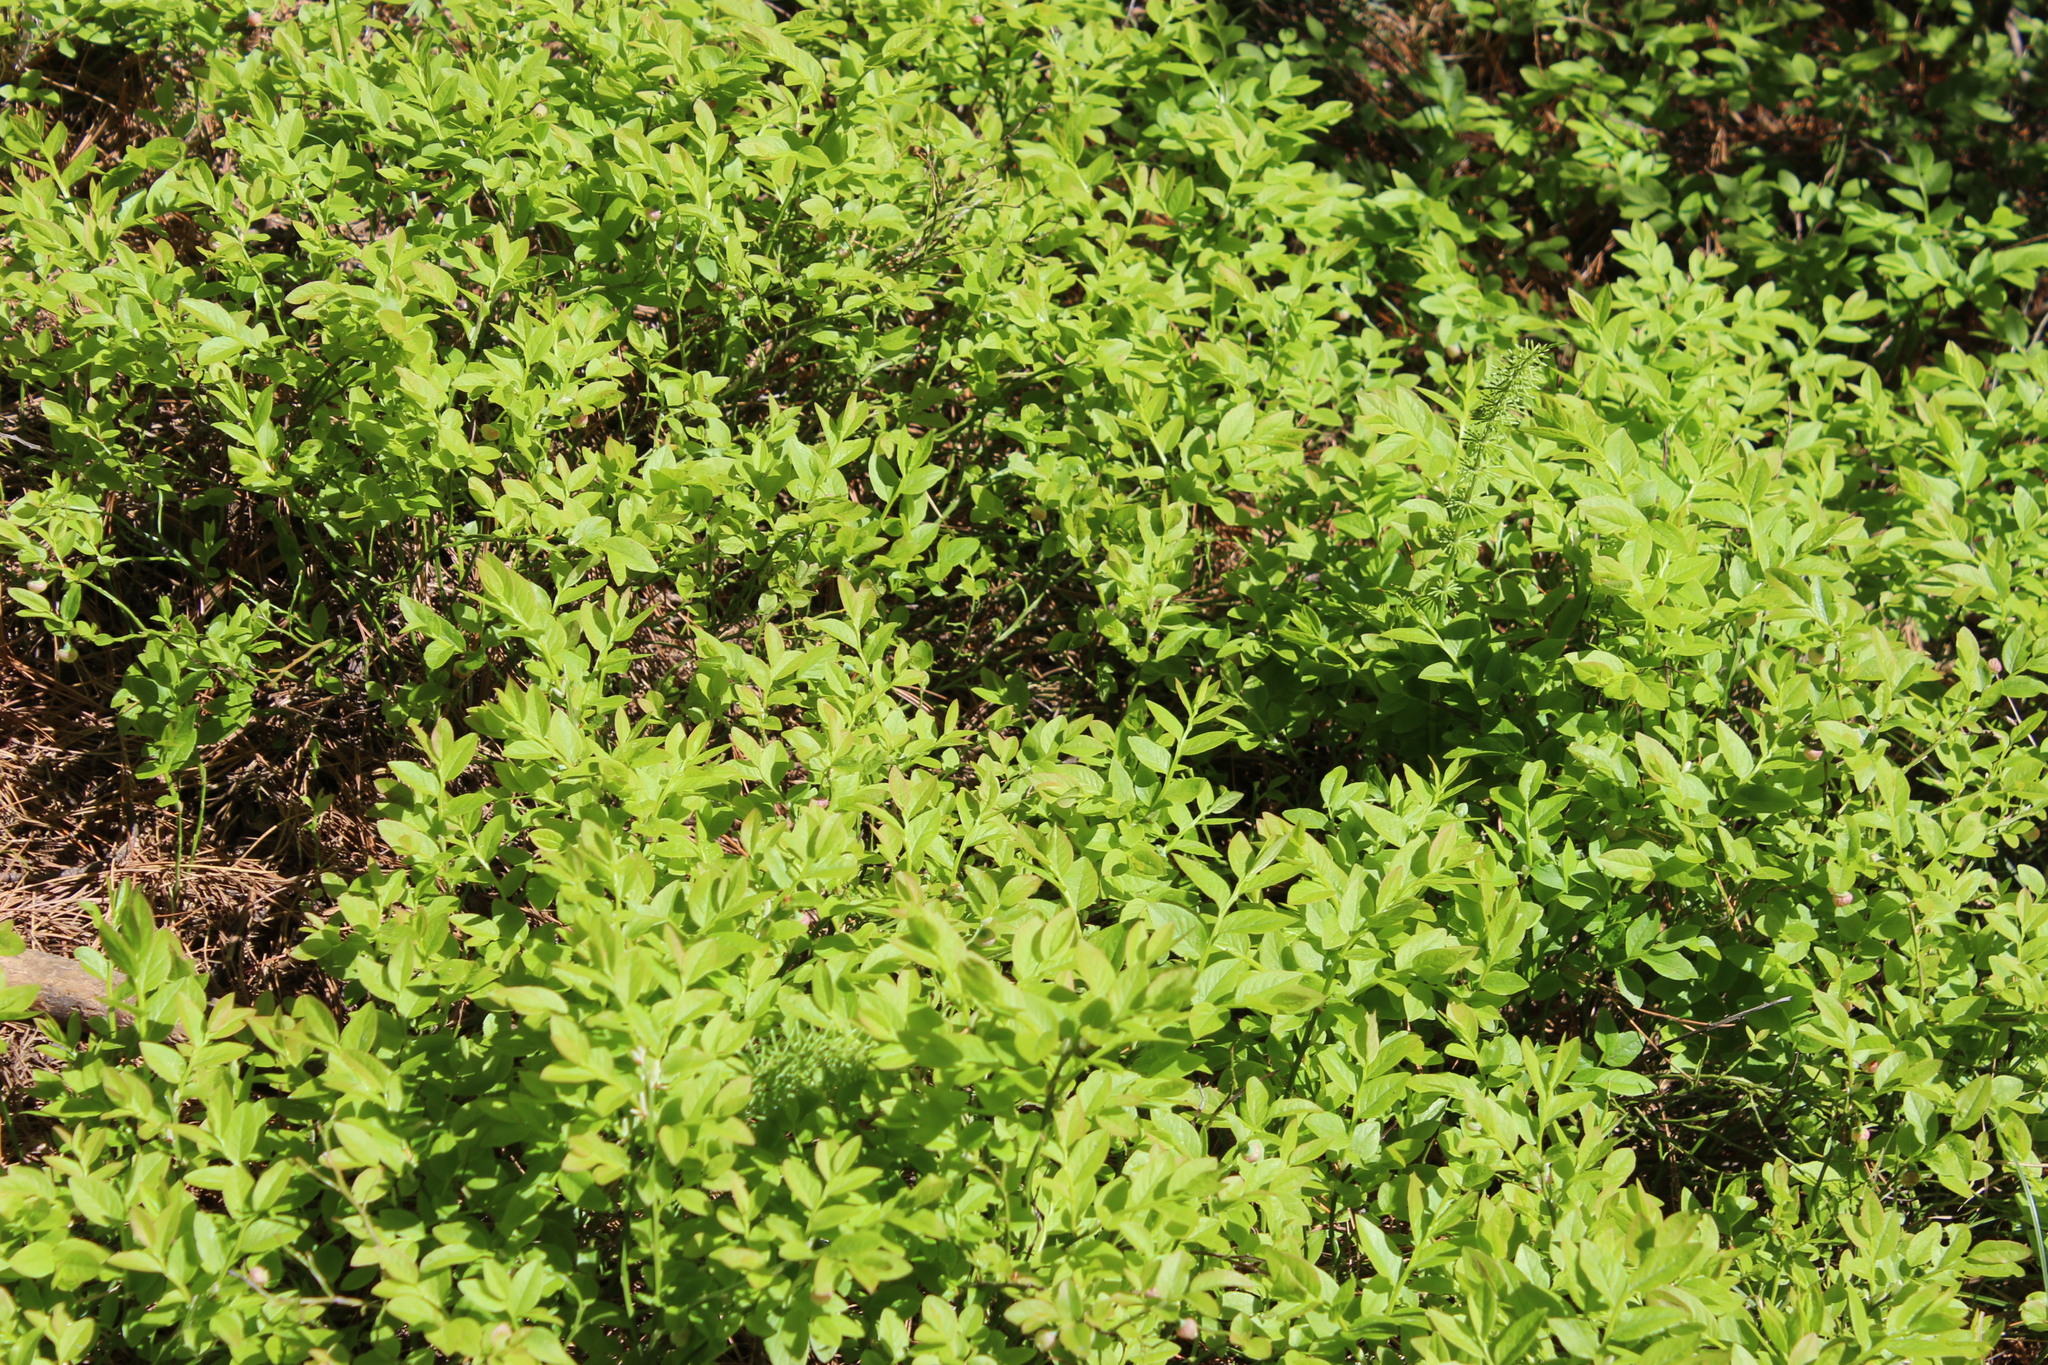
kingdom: Plantae
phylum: Tracheophyta
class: Magnoliopsida
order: Ericales
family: Ericaceae
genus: Vaccinium
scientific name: Vaccinium myrtillus
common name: Bilberry
